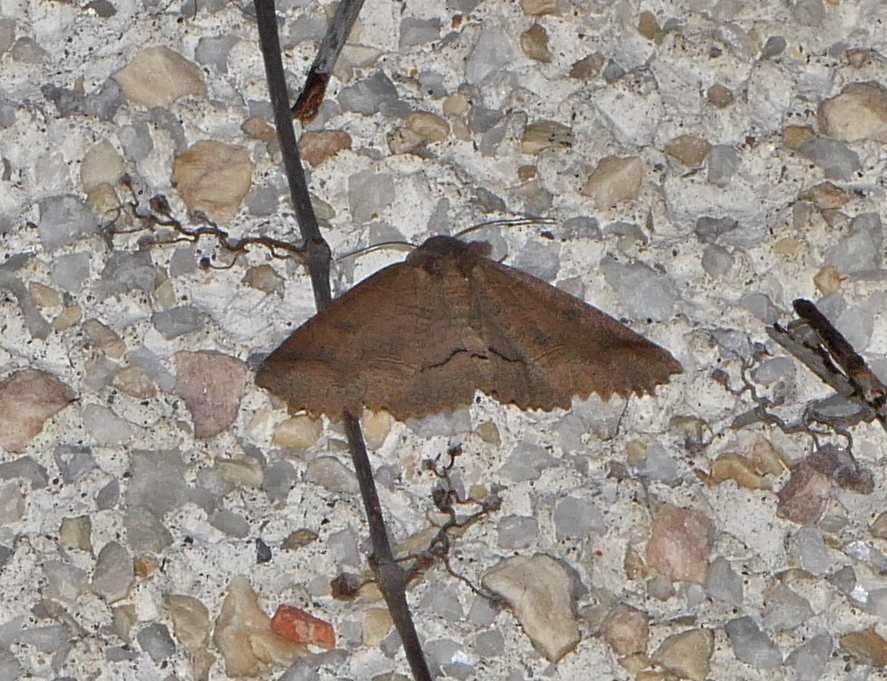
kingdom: Animalia
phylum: Arthropoda
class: Insecta
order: Lepidoptera
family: Erebidae
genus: Zale
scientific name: Zale unilineata
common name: One-lined zale moth
